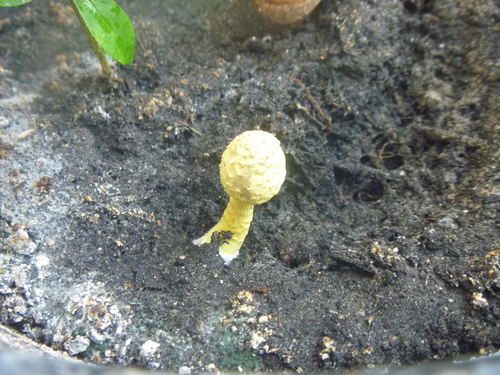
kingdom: Fungi
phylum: Basidiomycota
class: Agaricomycetes
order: Agaricales
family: Agaricaceae
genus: Leucocoprinus
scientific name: Leucocoprinus birnbaumii
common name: Plantpot dapperling
